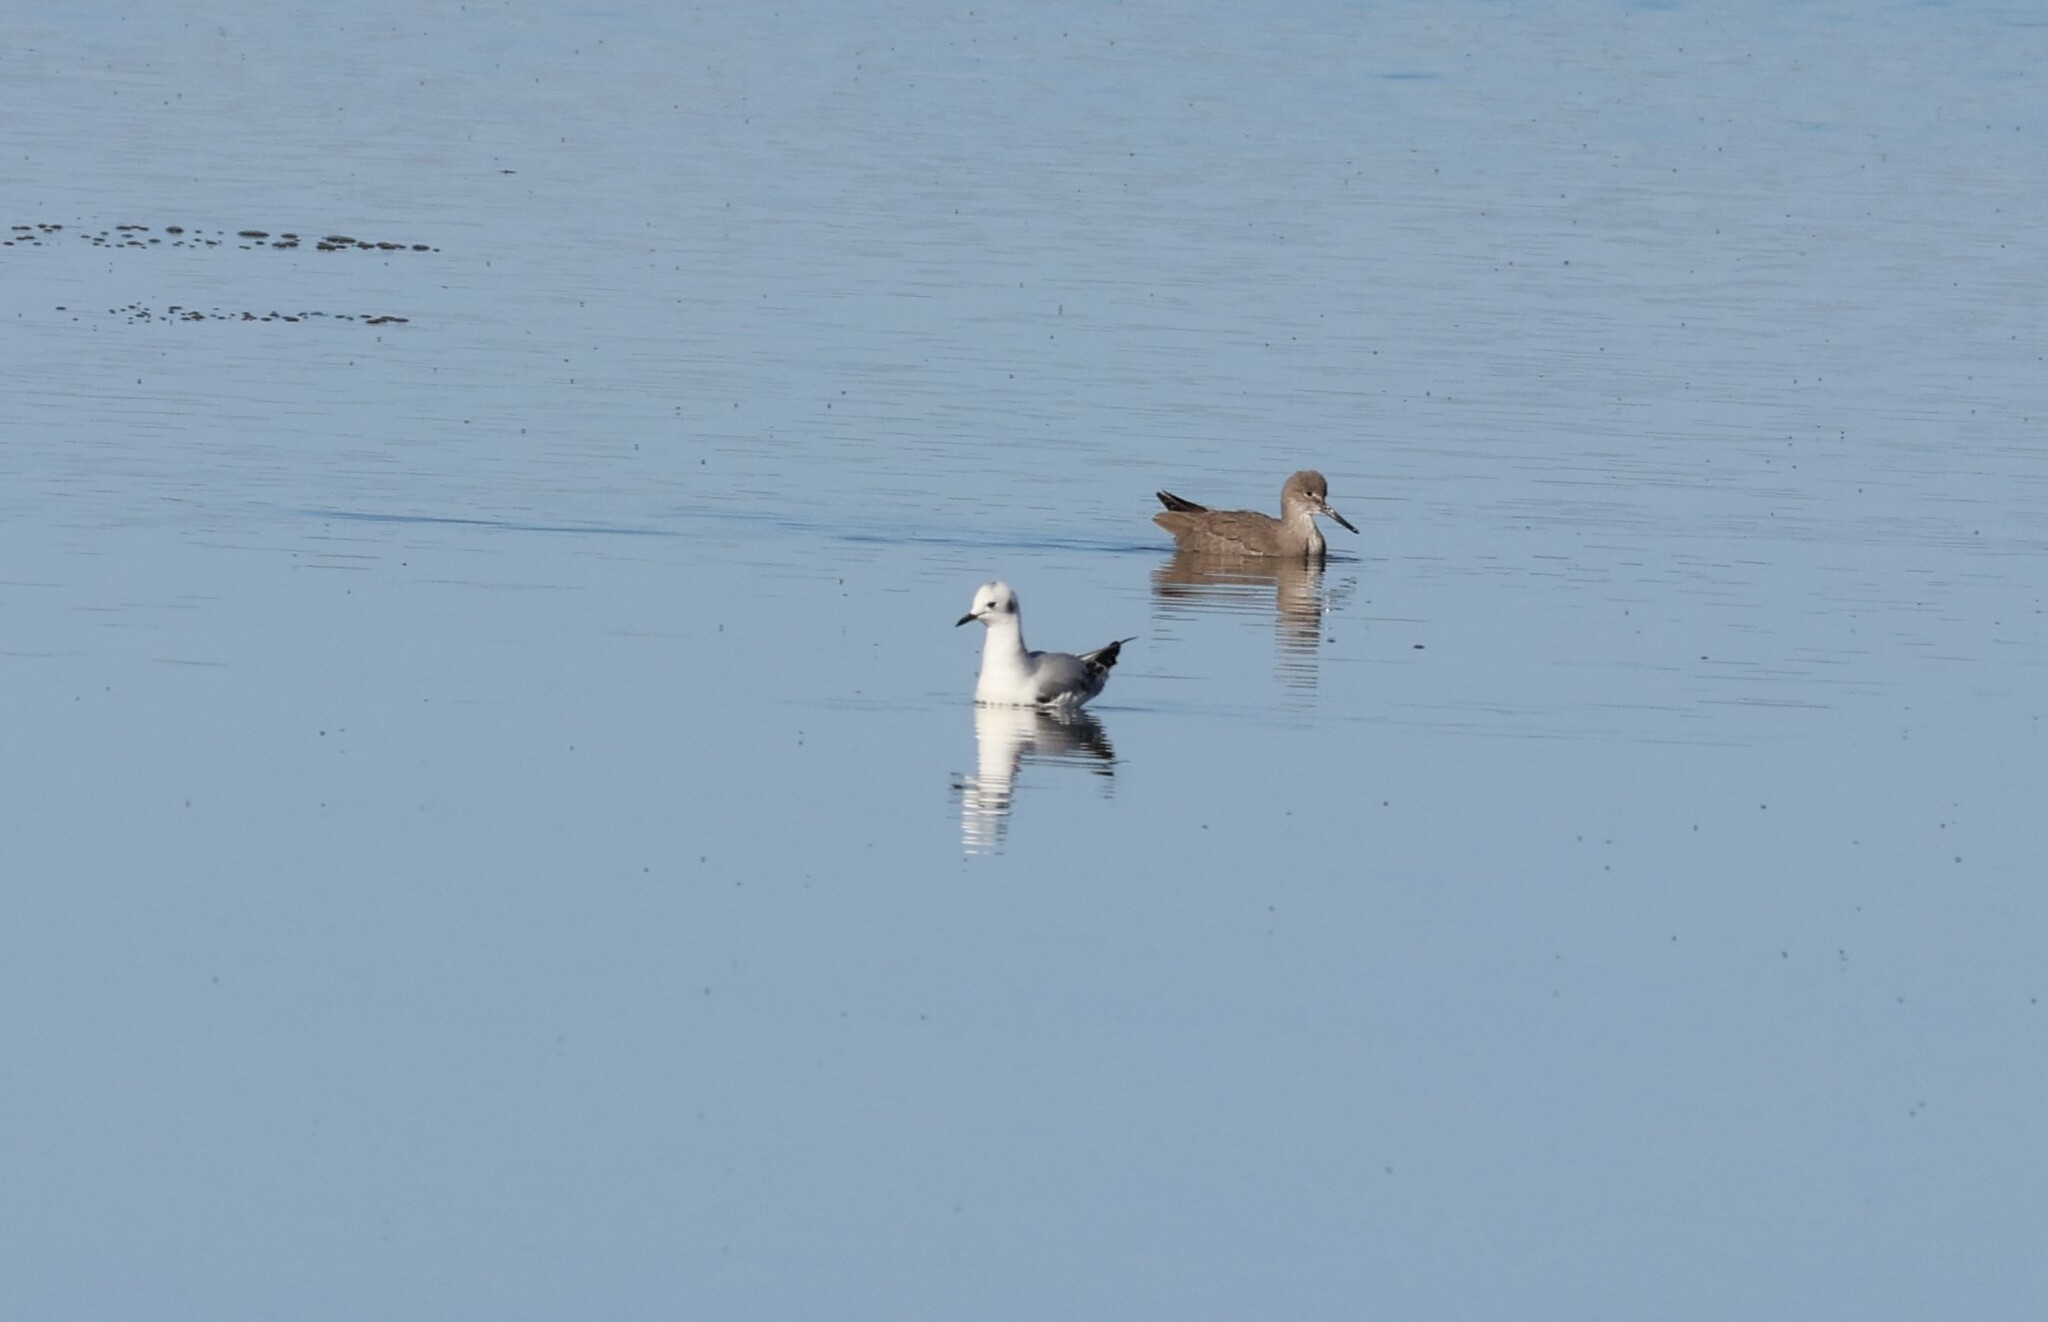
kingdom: Animalia
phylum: Chordata
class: Aves
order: Charadriiformes
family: Laridae
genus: Chroicocephalus
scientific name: Chroicocephalus philadelphia
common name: Bonaparte's gull
